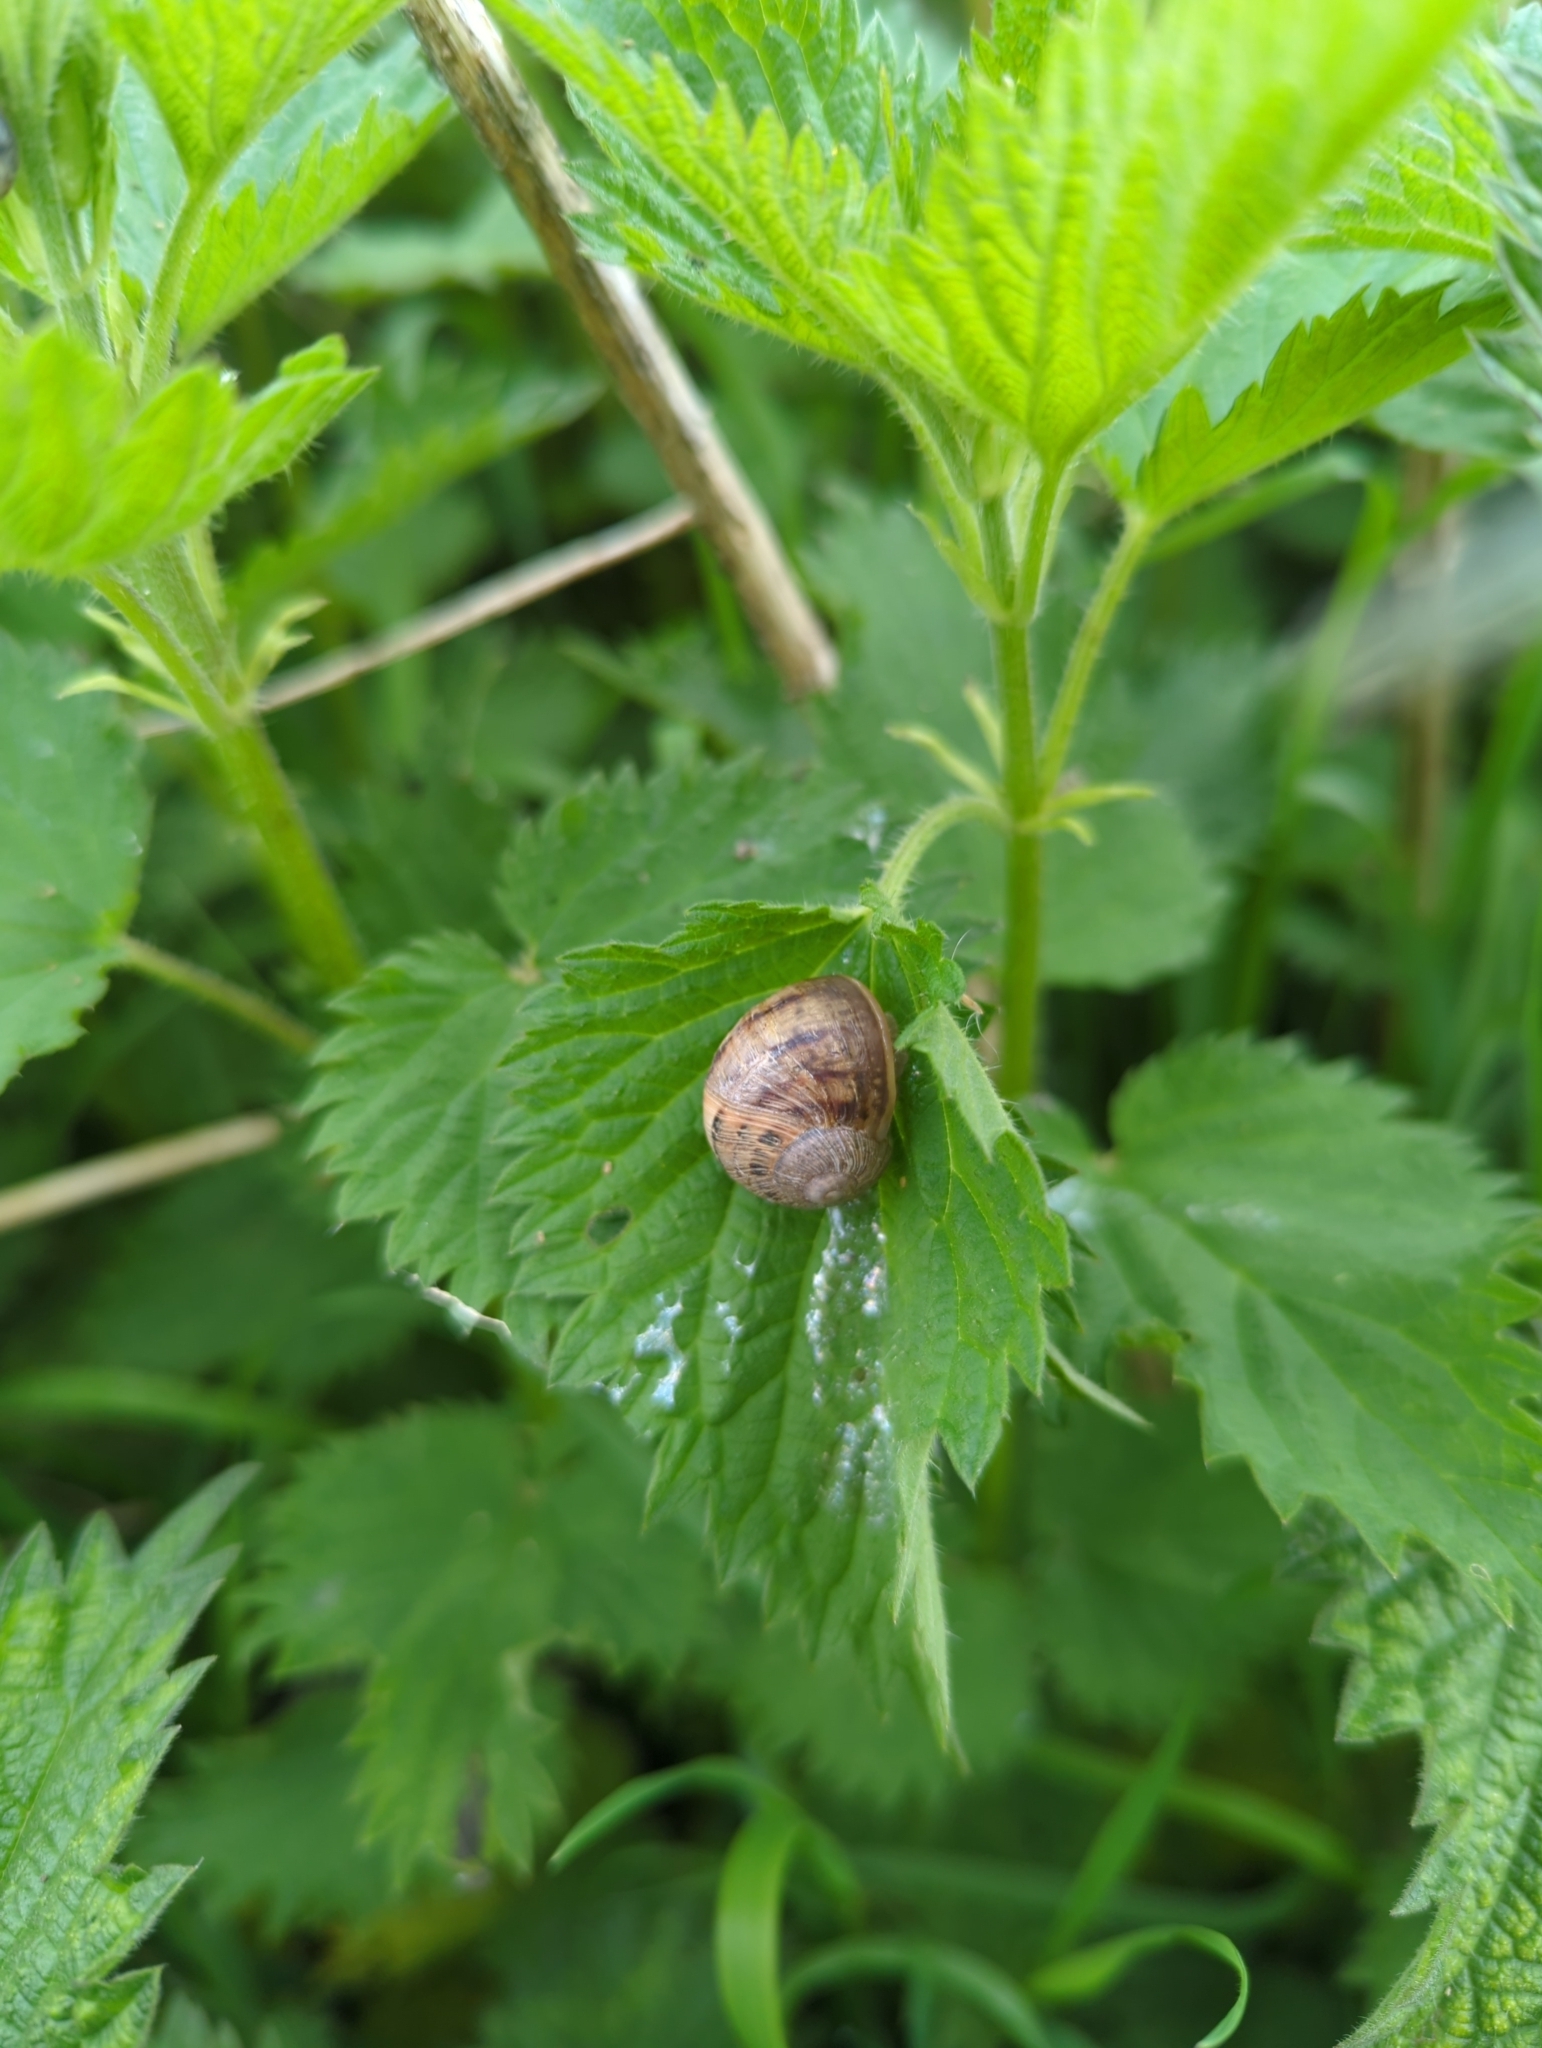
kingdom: Animalia
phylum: Mollusca
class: Gastropoda
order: Stylommatophora
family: Helicidae
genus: Cornu
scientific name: Cornu aspersum
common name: Brown garden snail
